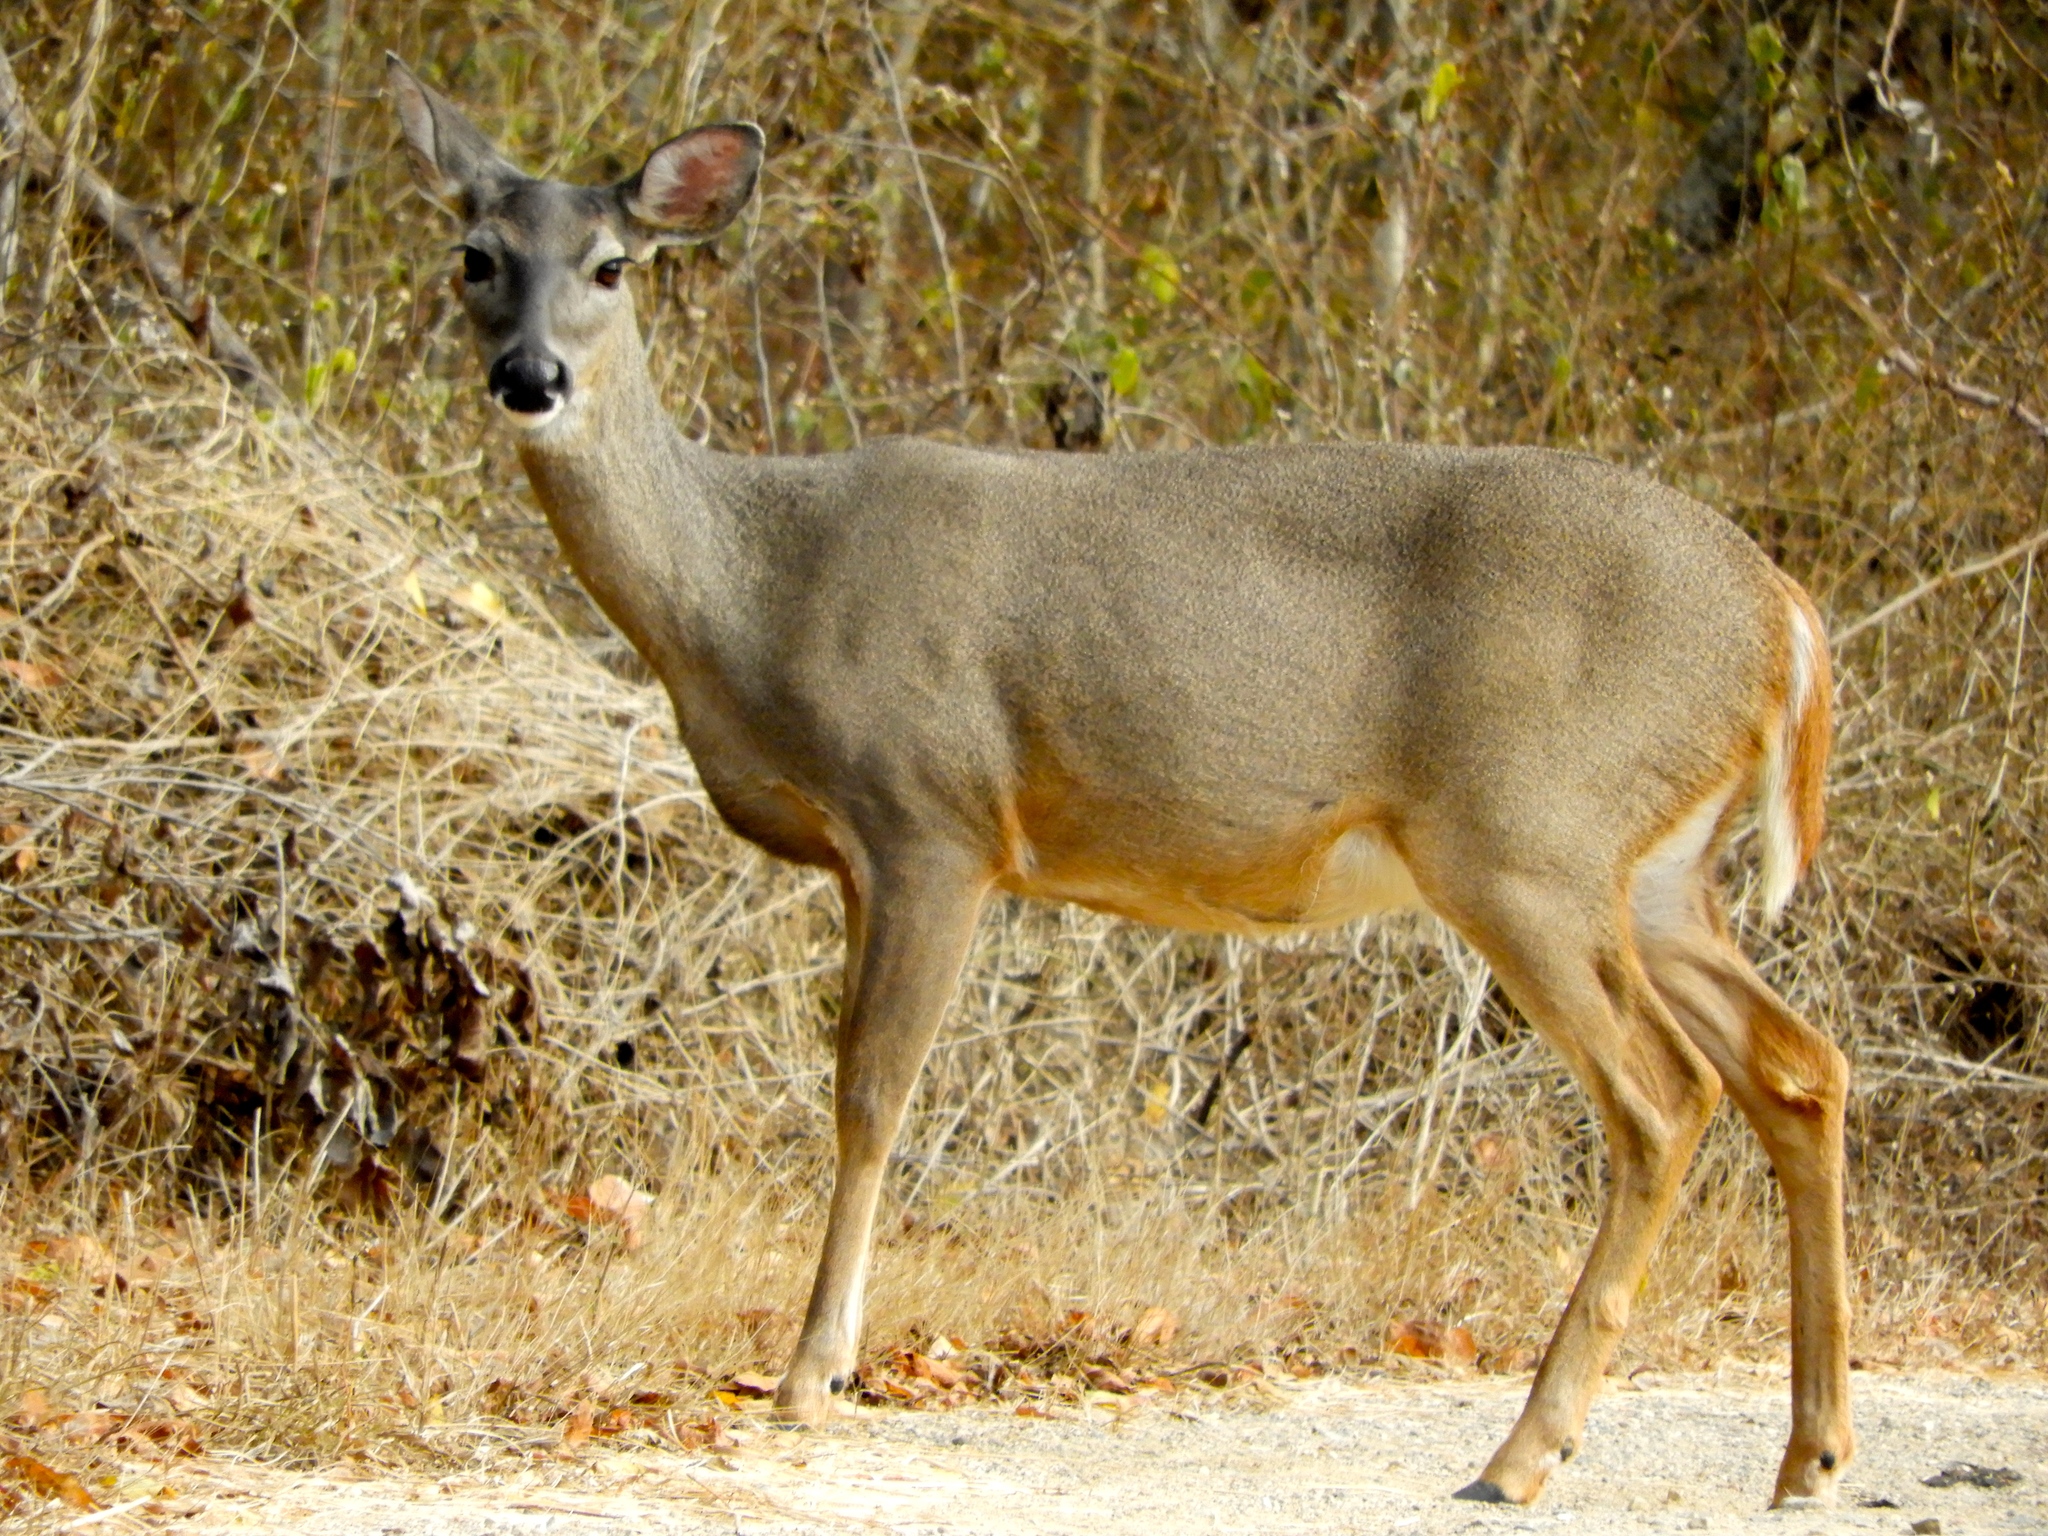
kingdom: Animalia
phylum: Chordata
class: Mammalia
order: Artiodactyla
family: Cervidae
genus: Odocoileus
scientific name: Odocoileus virginianus
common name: White-tailed deer
